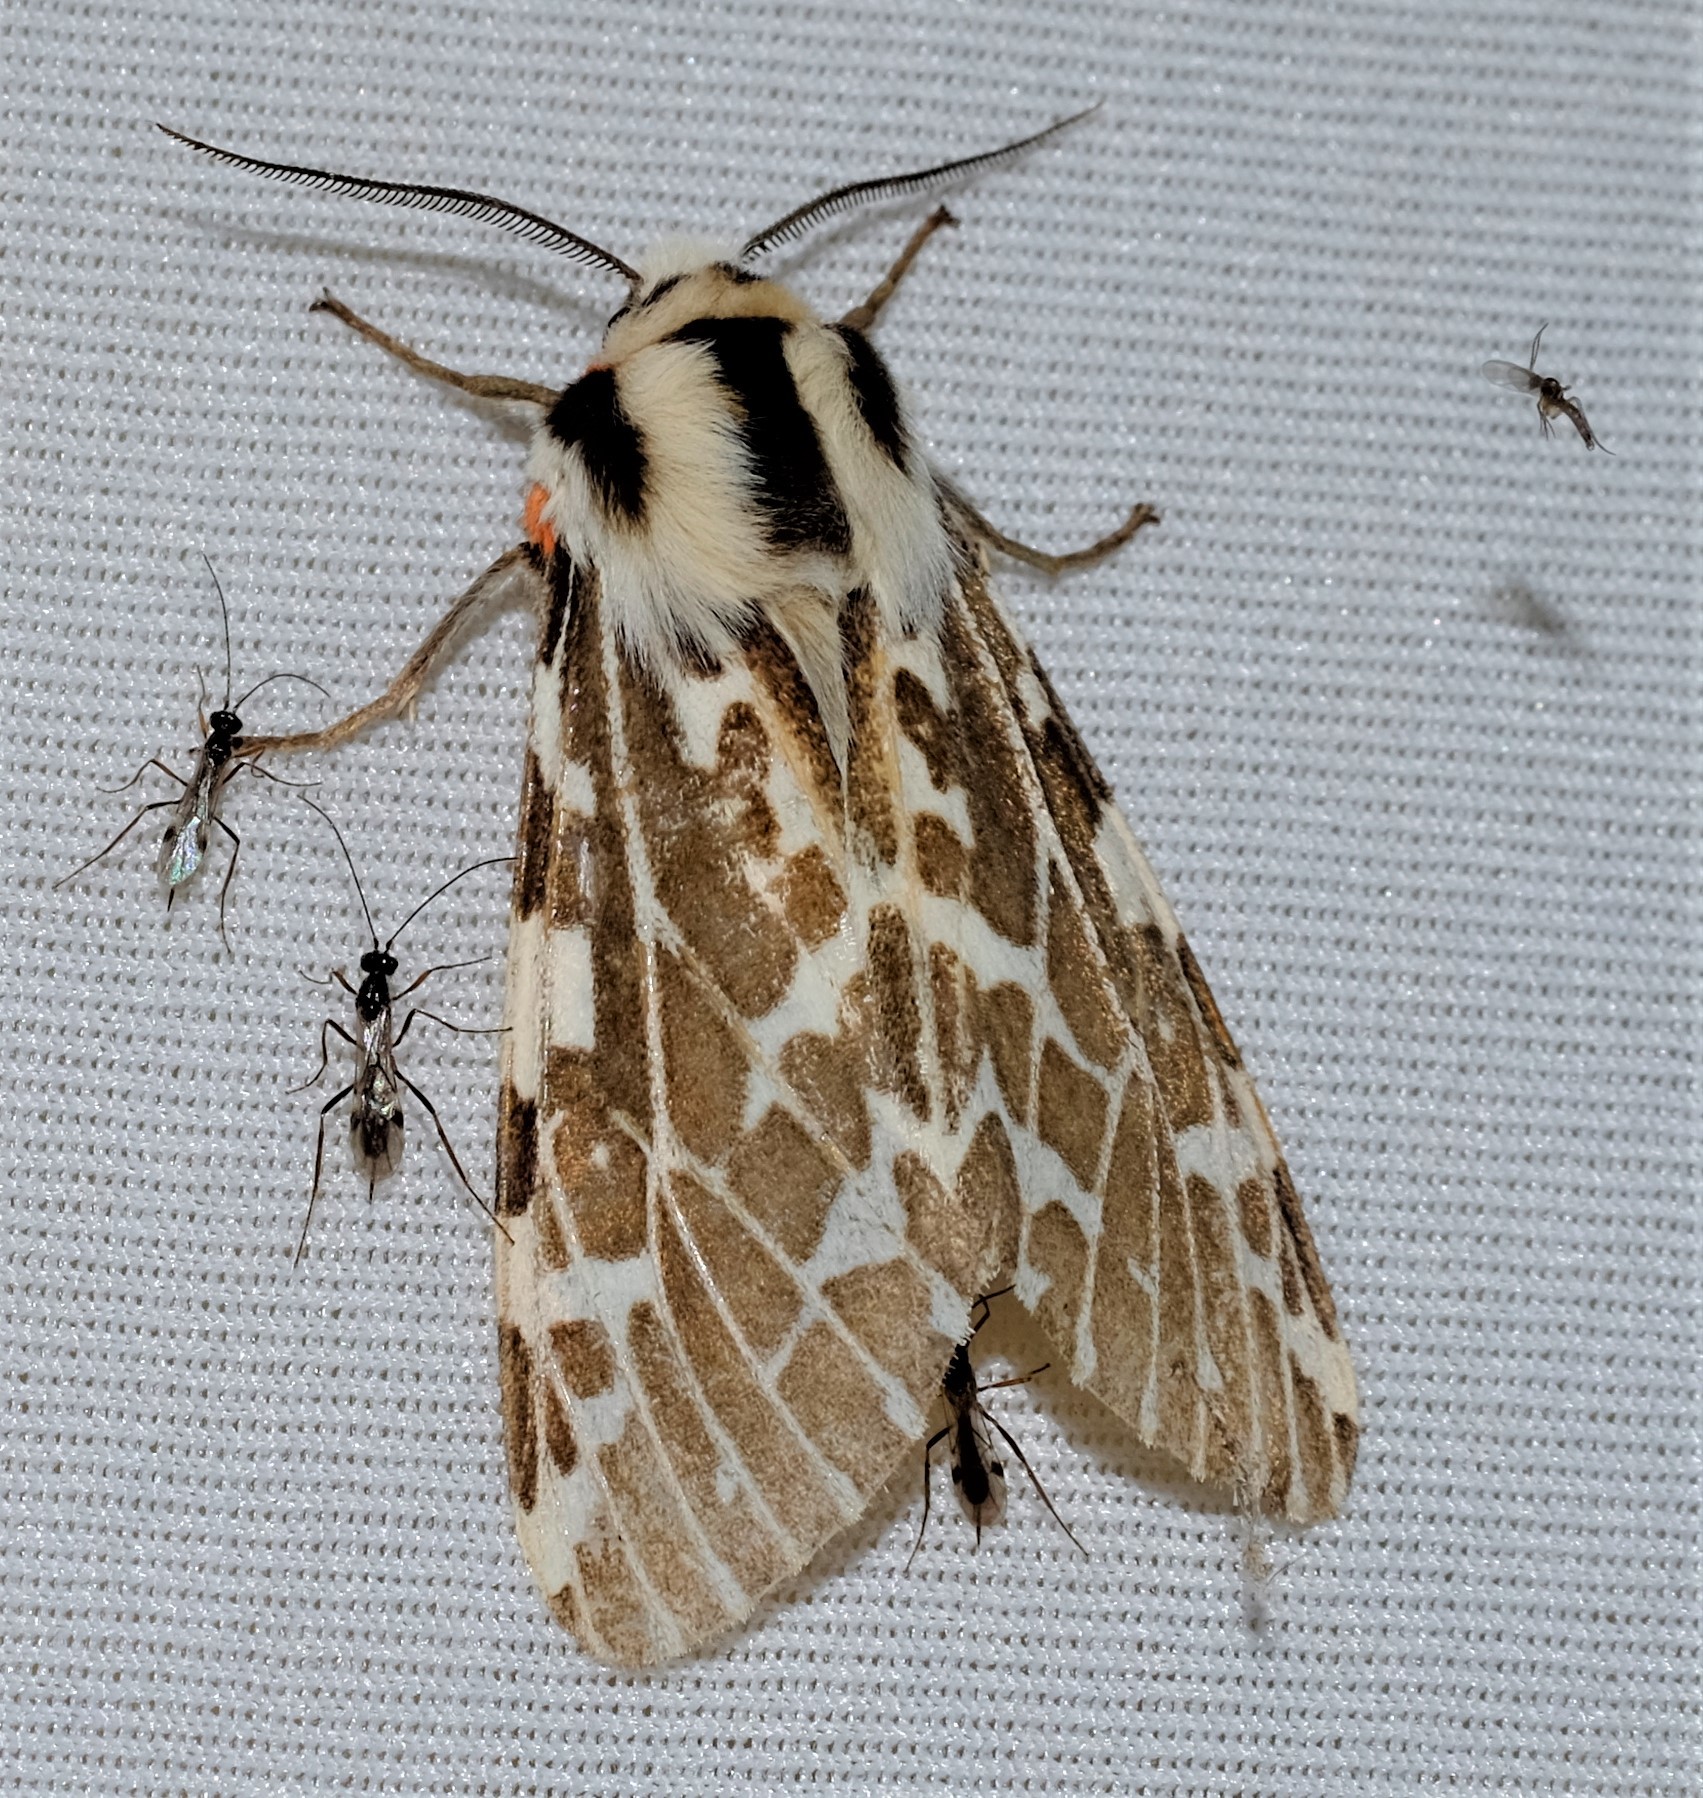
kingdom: Animalia
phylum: Arthropoda
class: Insecta
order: Lepidoptera
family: Erebidae
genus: Ardices
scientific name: Ardices glatignyi
